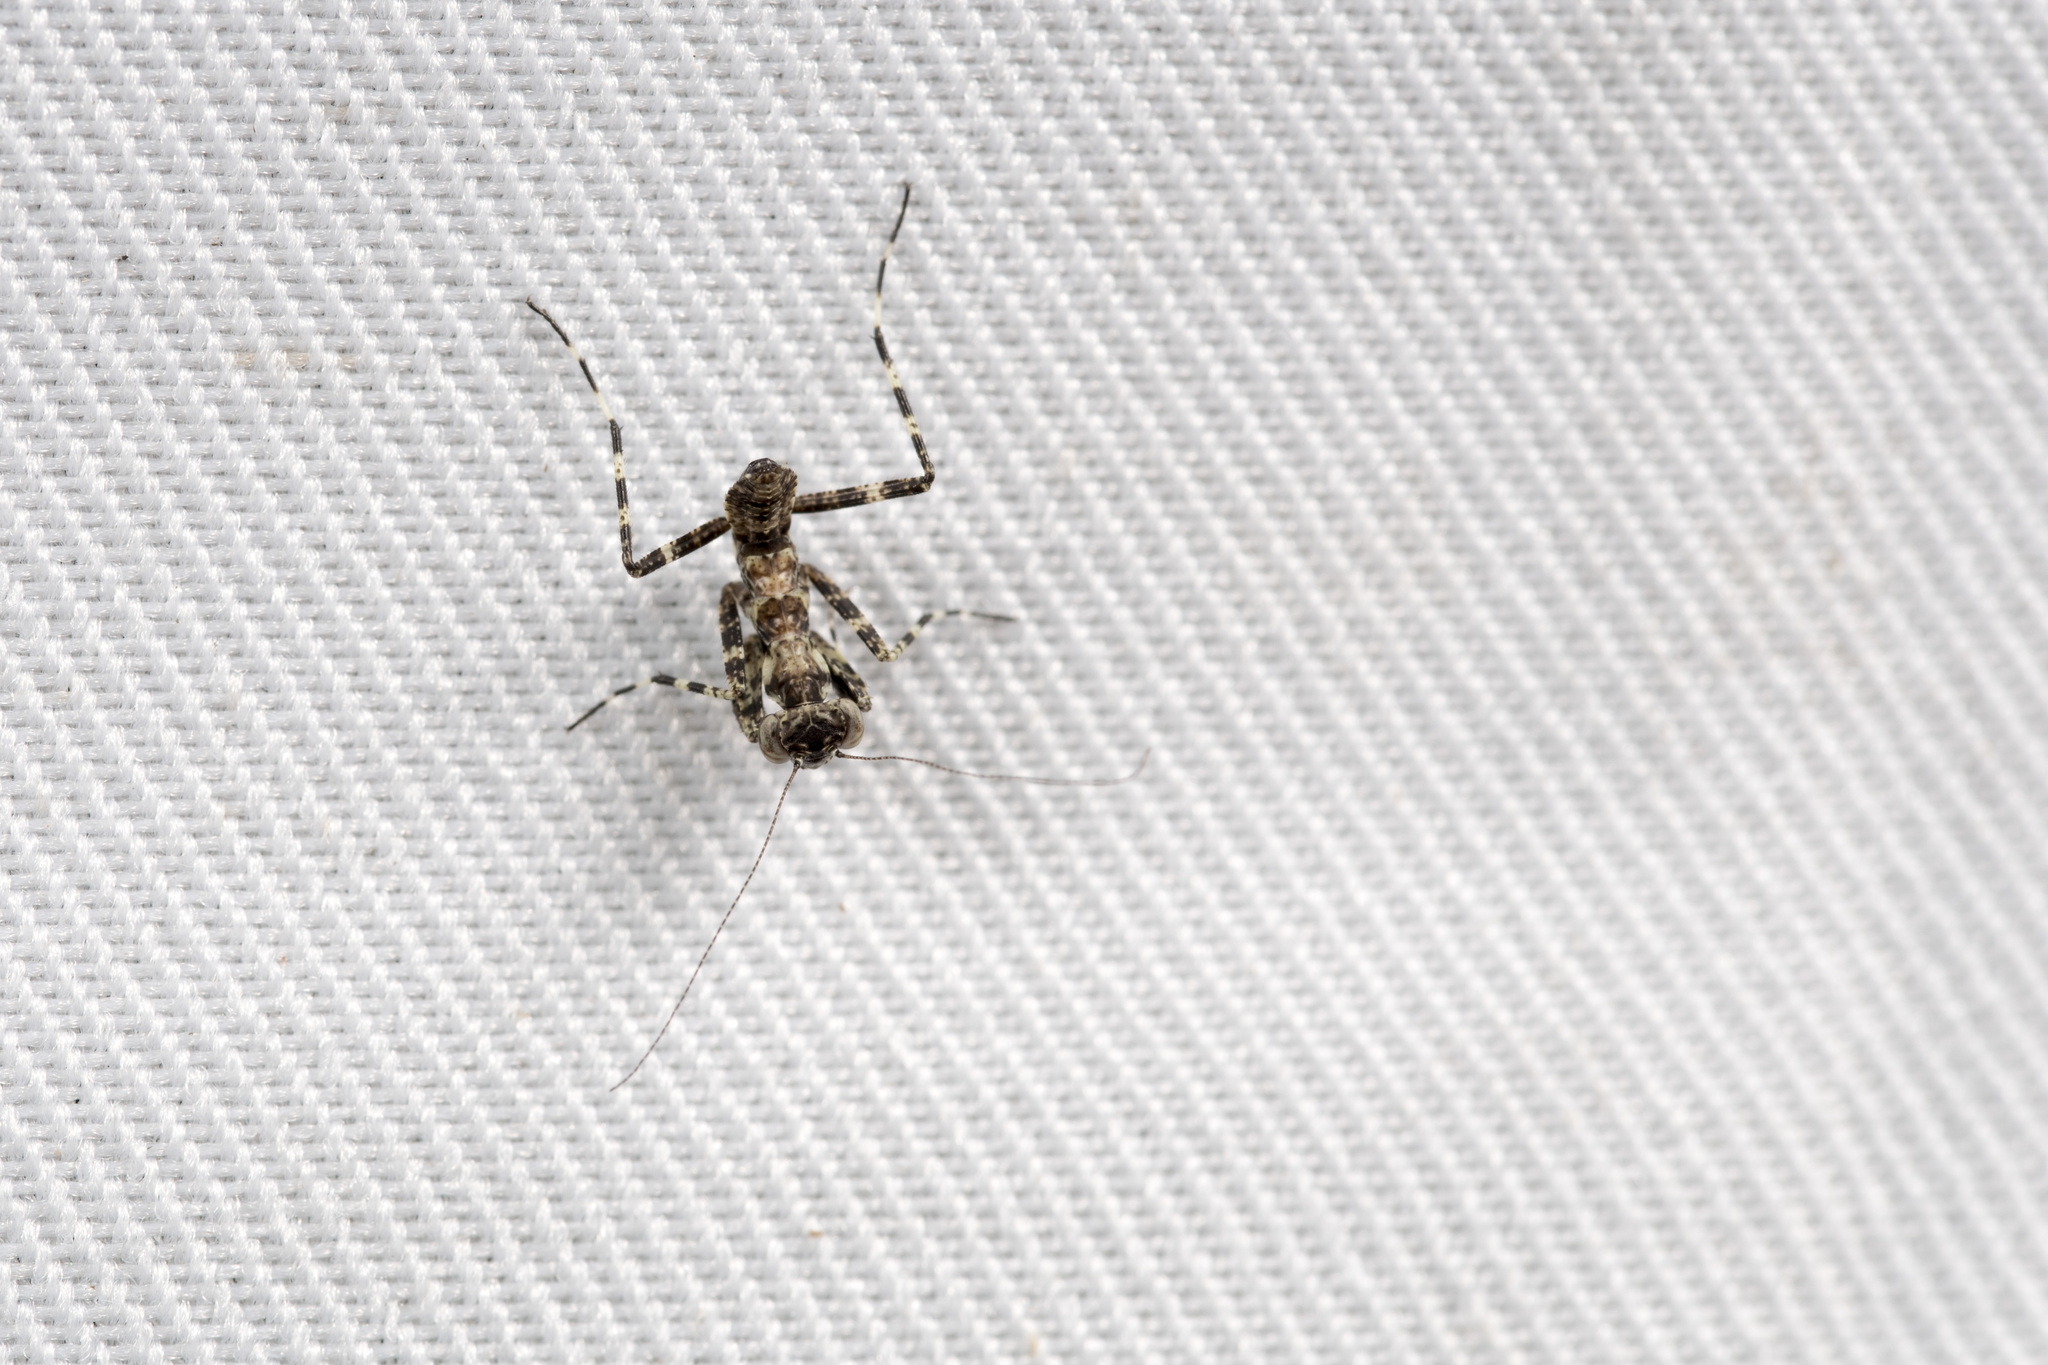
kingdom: Animalia
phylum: Arthropoda
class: Insecta
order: Mantodea
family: Gonypetidae
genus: Theopompa
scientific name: Theopompa ophthalmica
